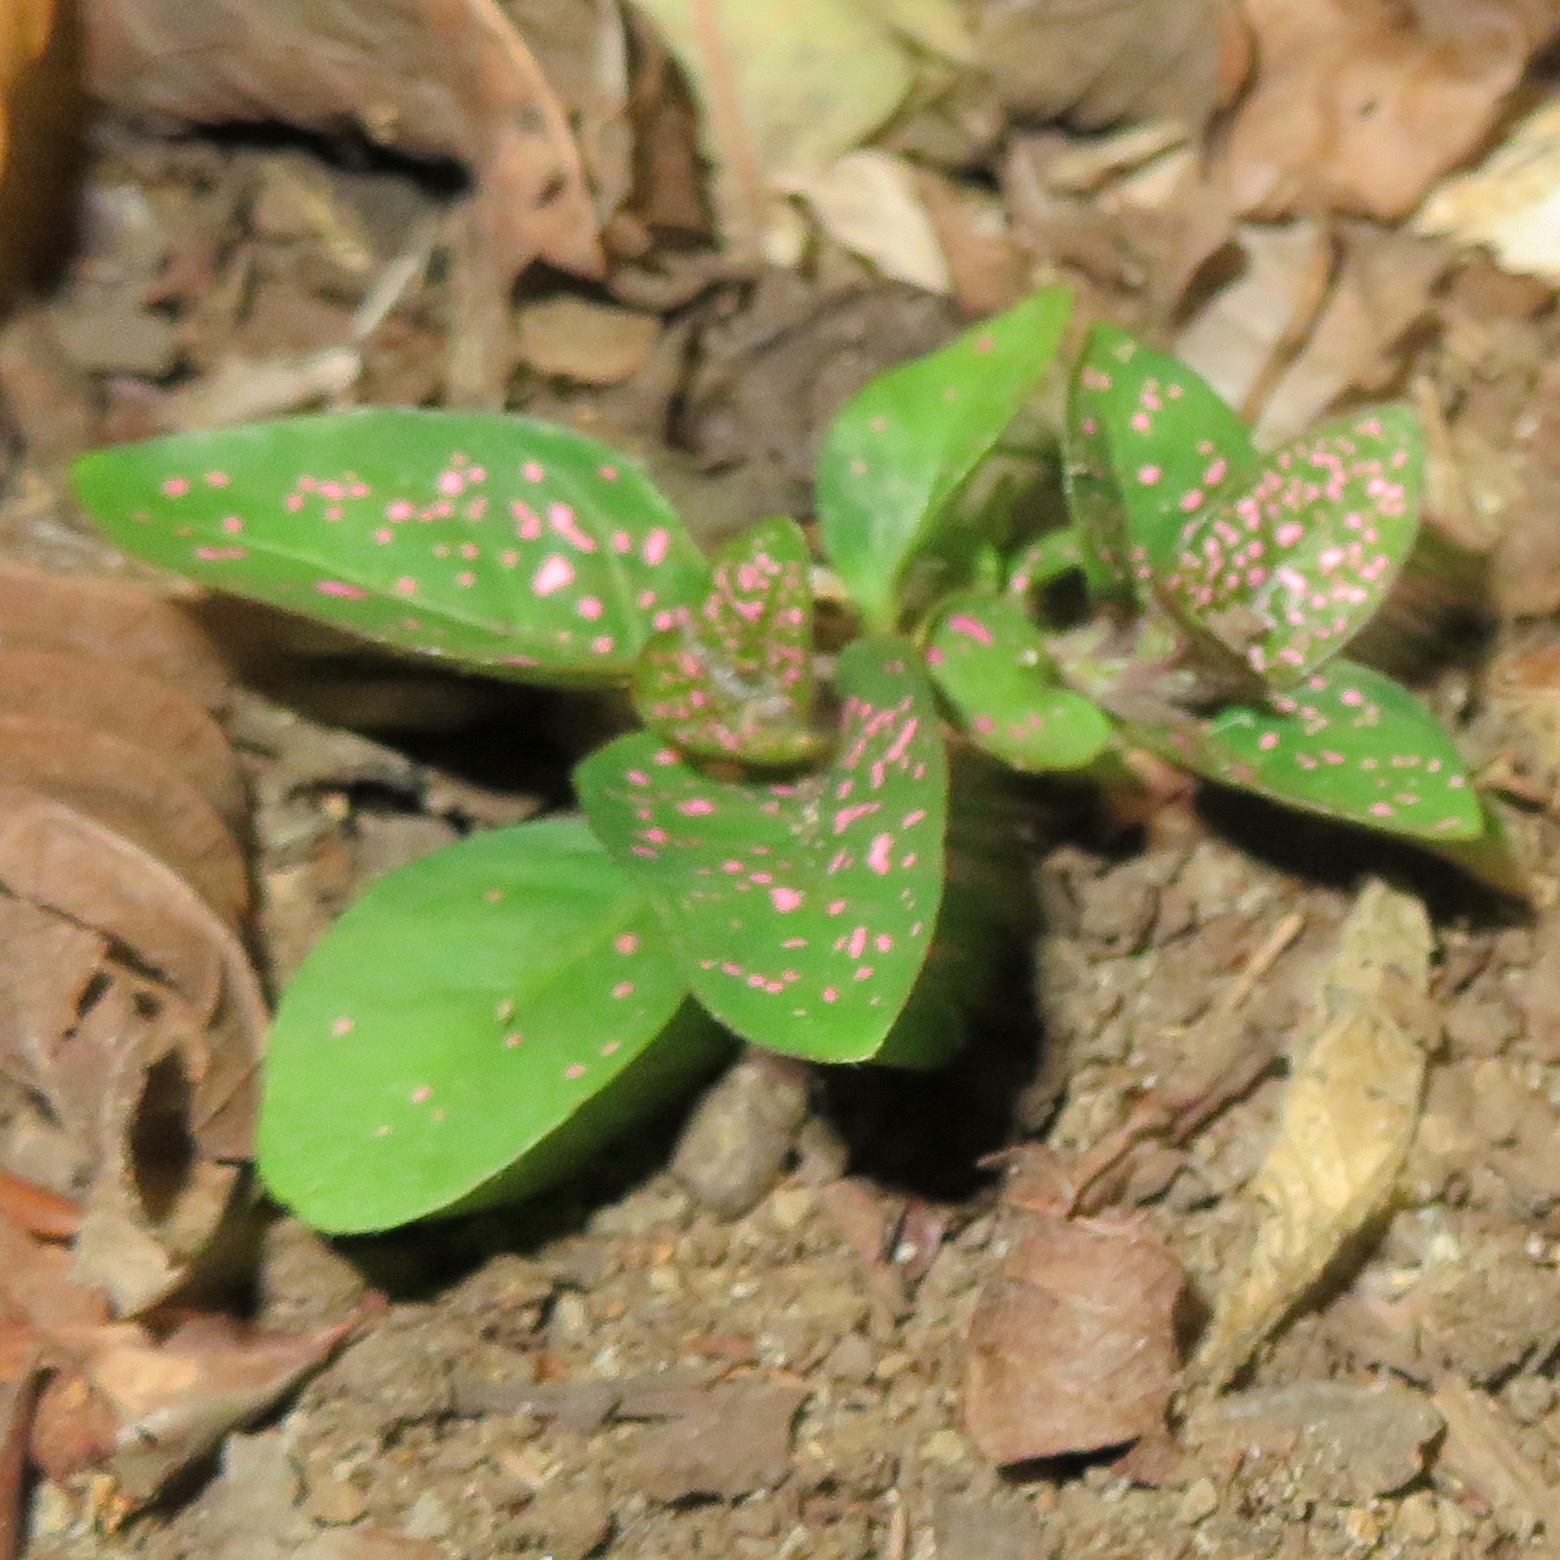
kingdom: Plantae
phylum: Tracheophyta
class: Magnoliopsida
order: Lamiales
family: Acanthaceae
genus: Hypoestes
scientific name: Hypoestes phyllostachya
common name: Polkadot-plant
